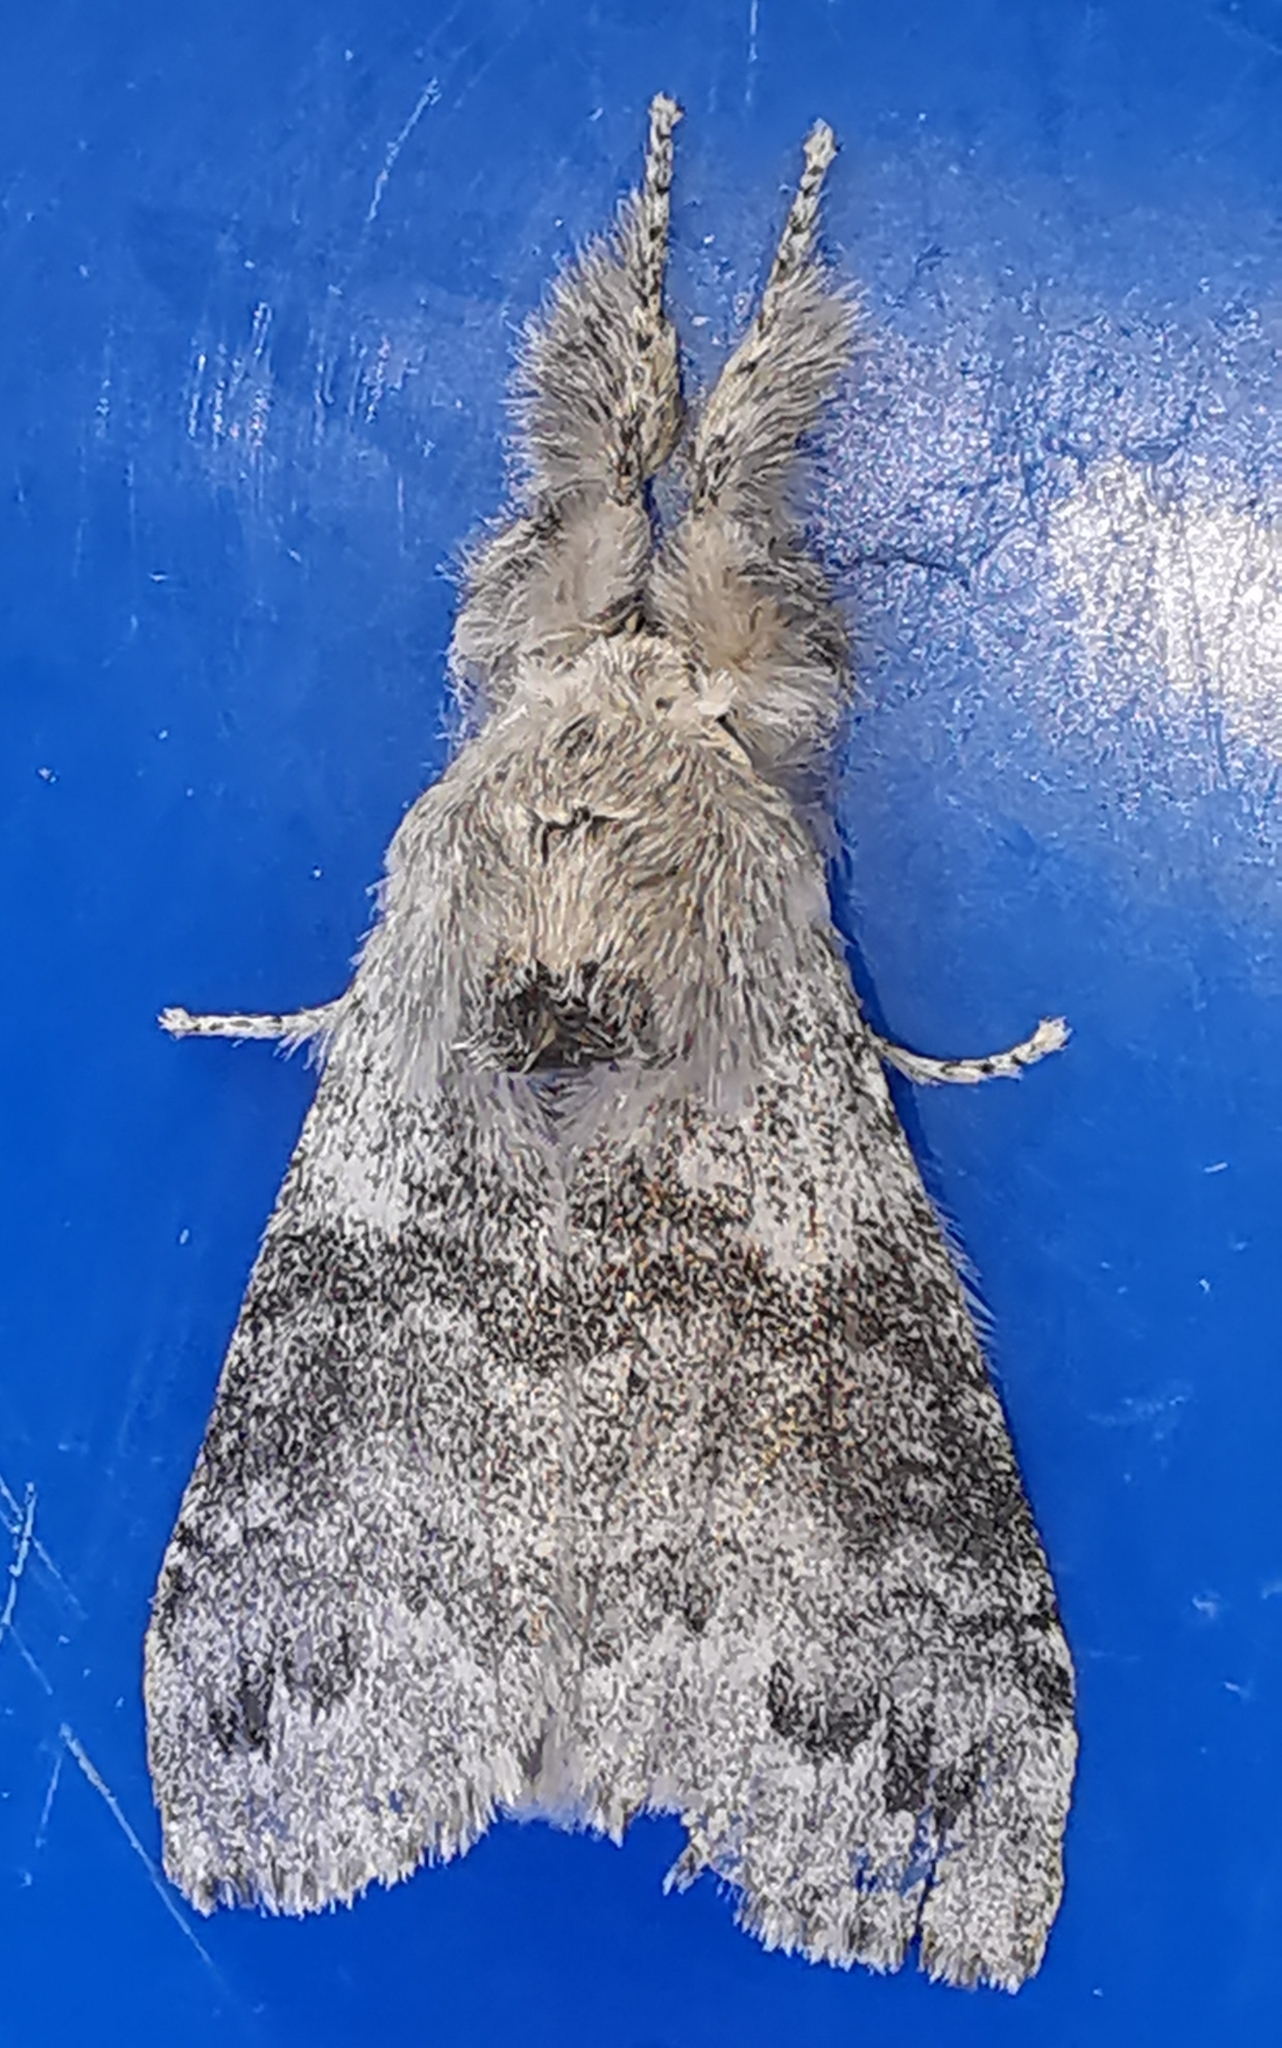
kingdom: Animalia
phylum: Arthropoda
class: Insecta
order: Lepidoptera
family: Erebidae
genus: Calliteara
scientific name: Calliteara pudibunda
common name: Pale tussock
